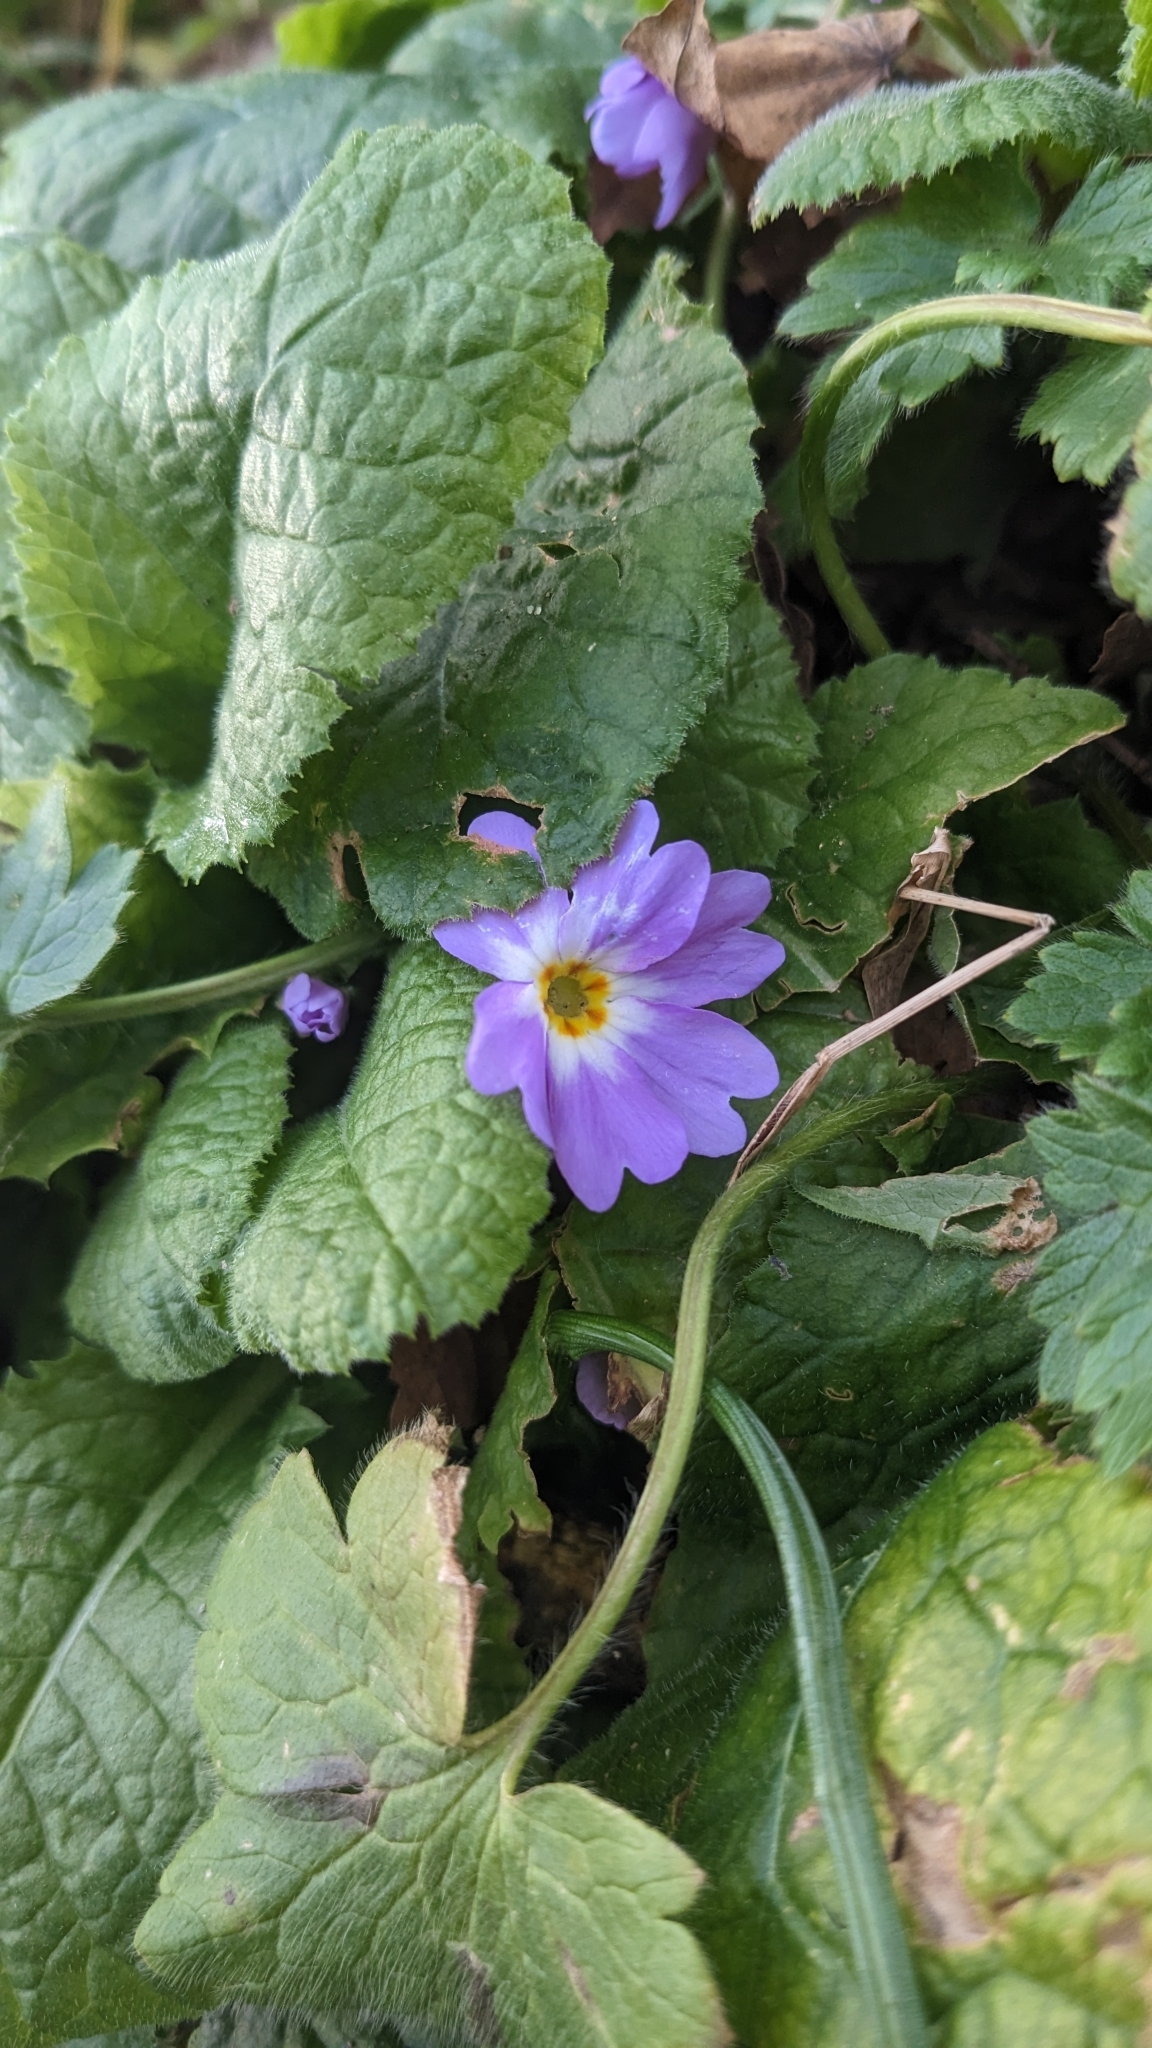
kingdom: Plantae
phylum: Tracheophyta
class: Magnoliopsida
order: Ericales
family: Primulaceae
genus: Primula
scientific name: Primula vulgaris
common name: Primrose
